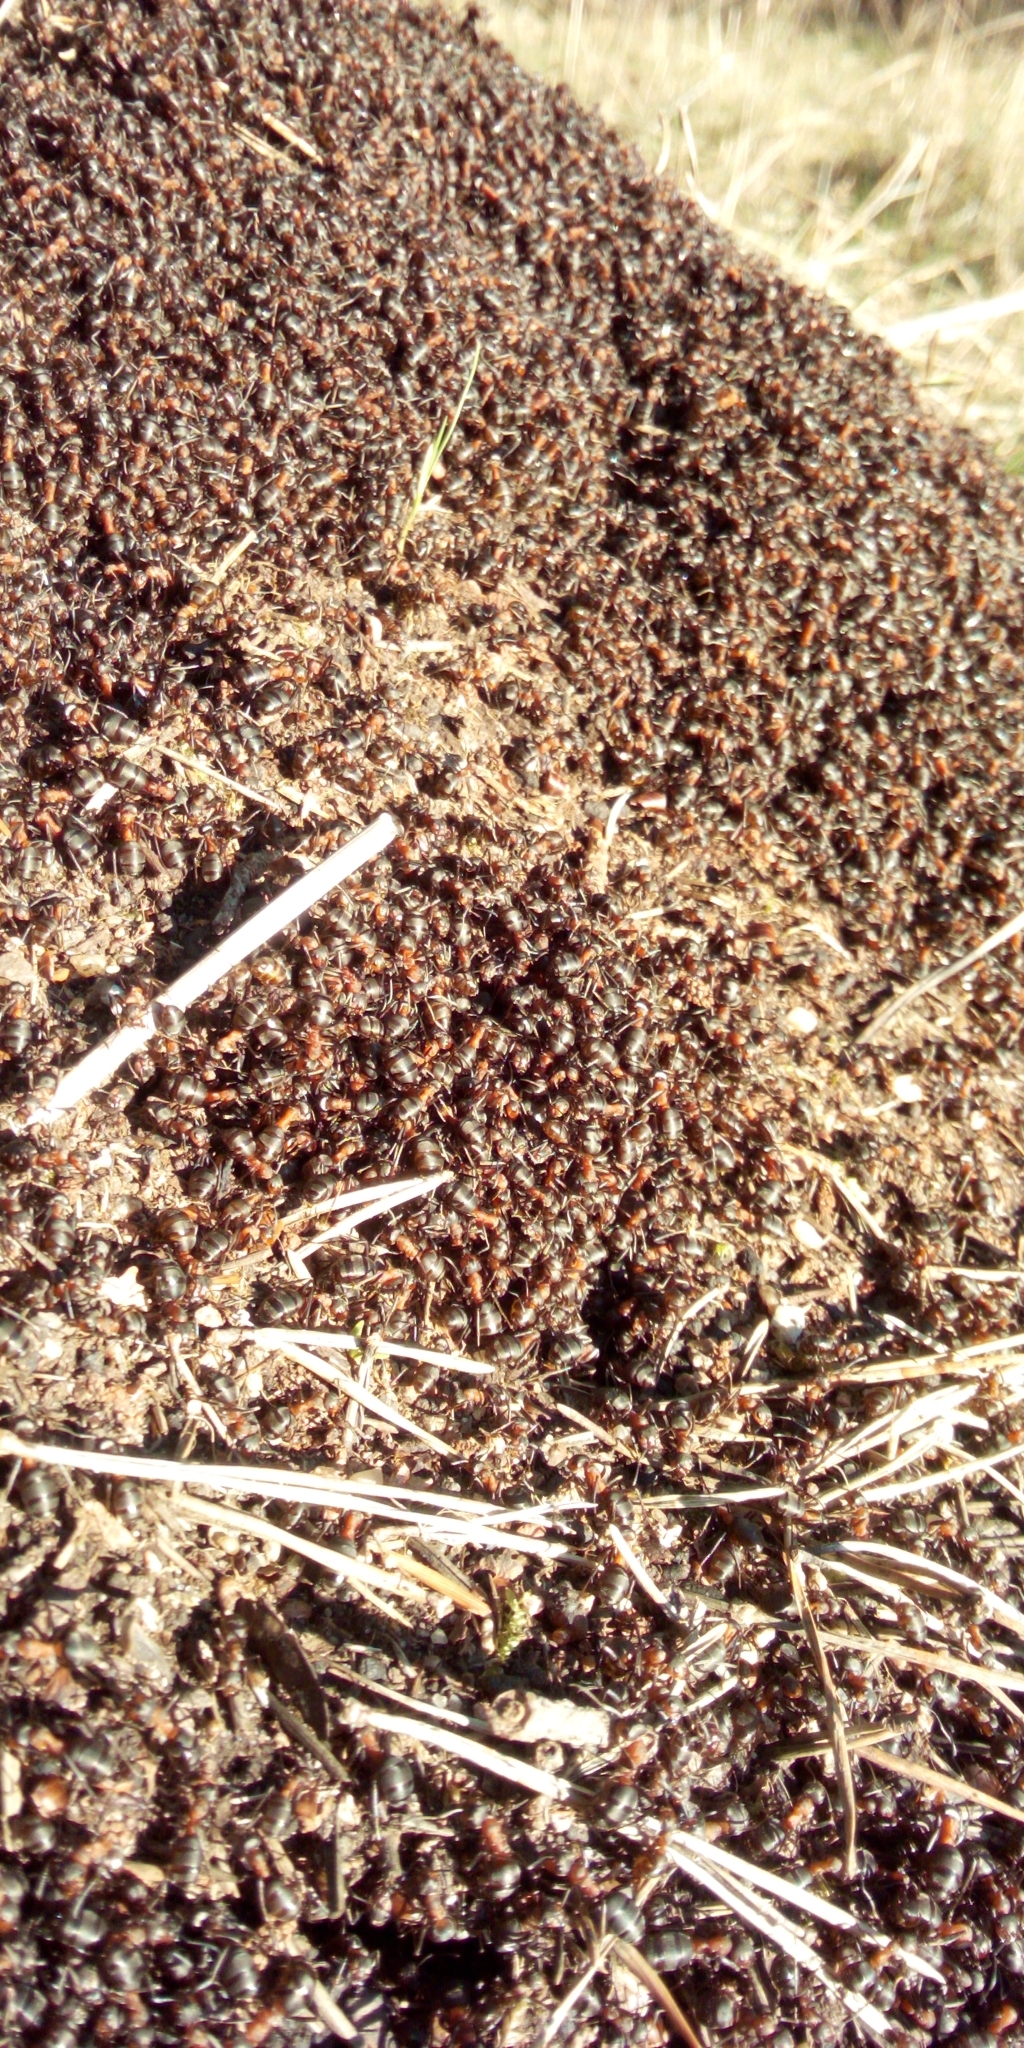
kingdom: Animalia
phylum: Arthropoda
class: Insecta
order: Hymenoptera
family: Formicidae
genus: Formica
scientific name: Formica
